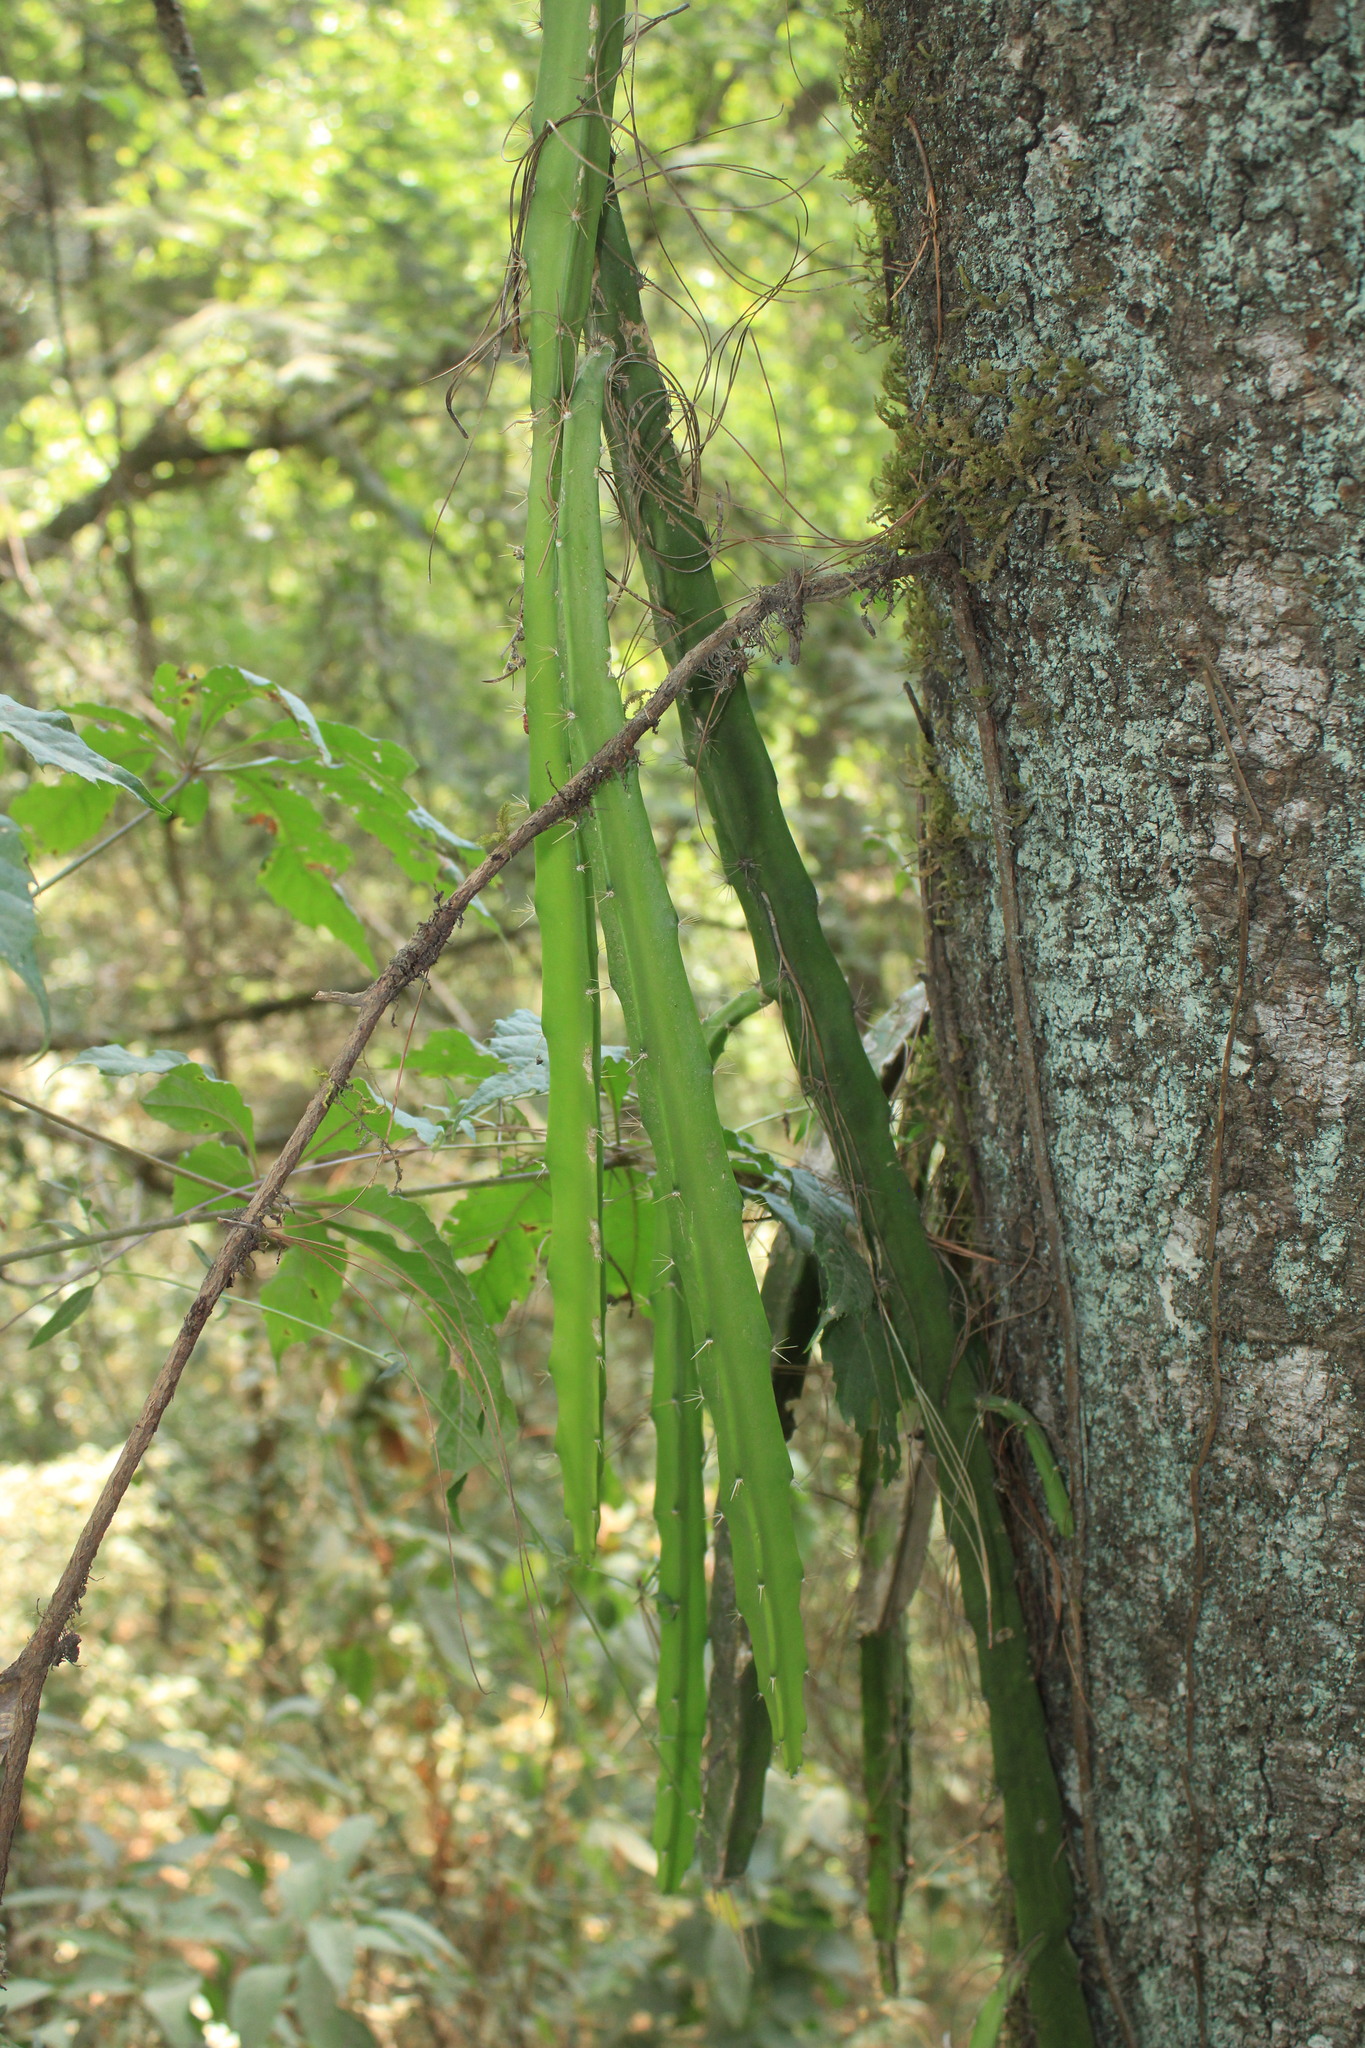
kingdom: Plantae
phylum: Tracheophyta
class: Magnoliopsida
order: Caryophyllales
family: Cactaceae
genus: Disocactus
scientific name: Disocactus speciosus
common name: Sun cereus
